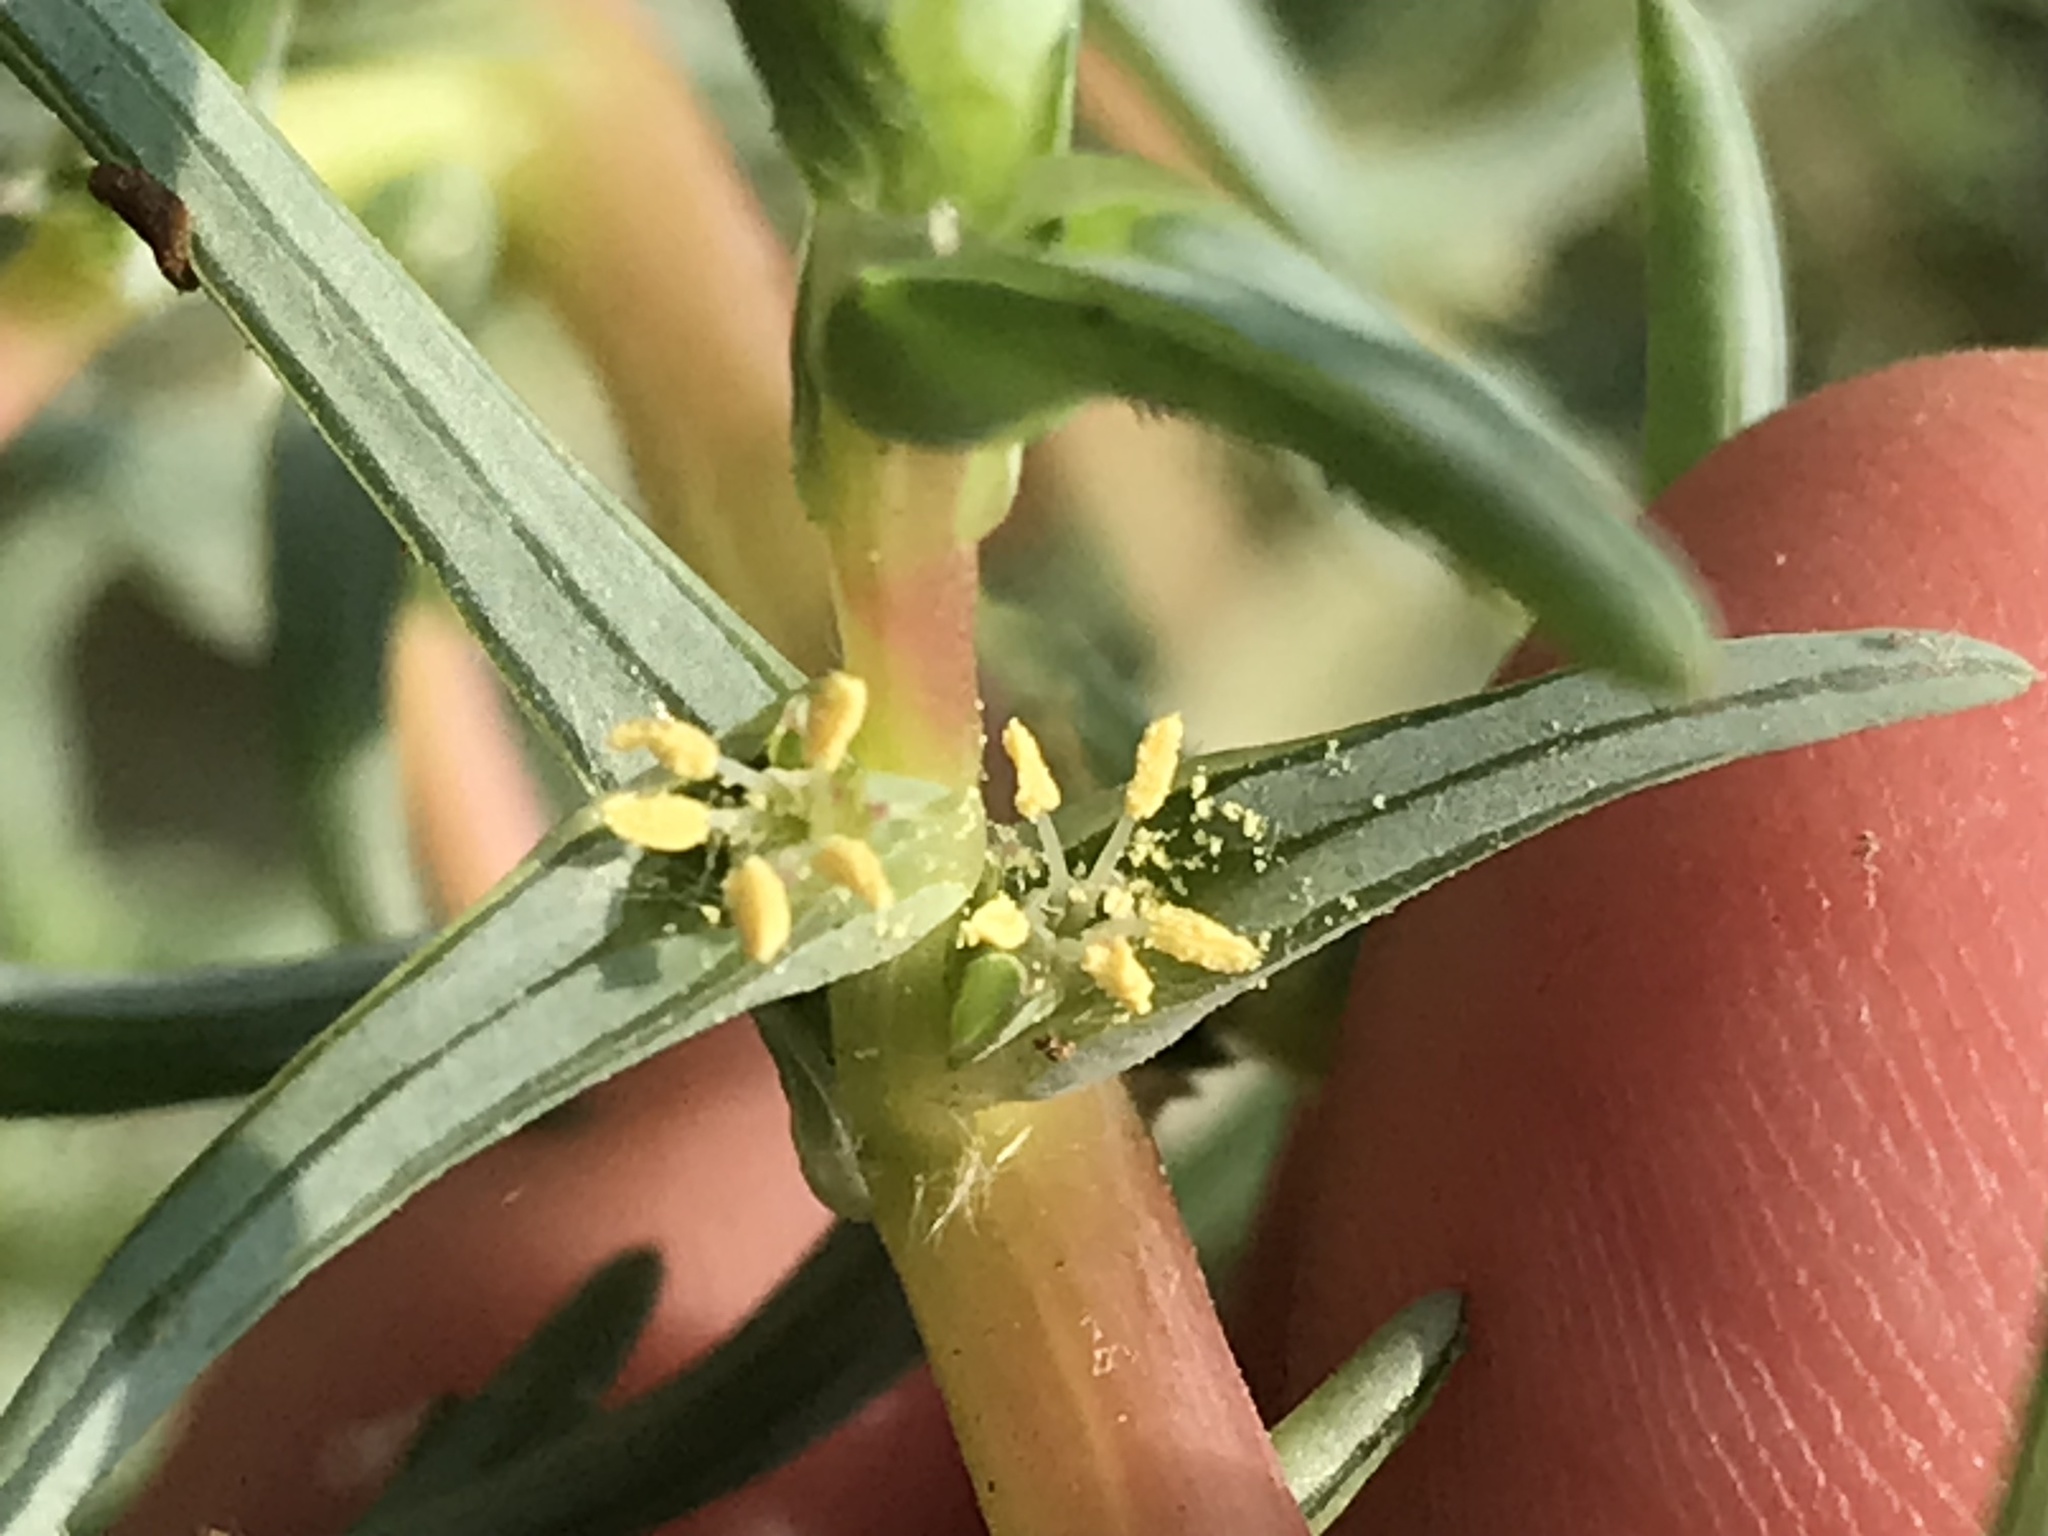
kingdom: Plantae
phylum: Tracheophyta
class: Magnoliopsida
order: Caryophyllales
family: Amaranthaceae
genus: Salsola
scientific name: Salsola soda
